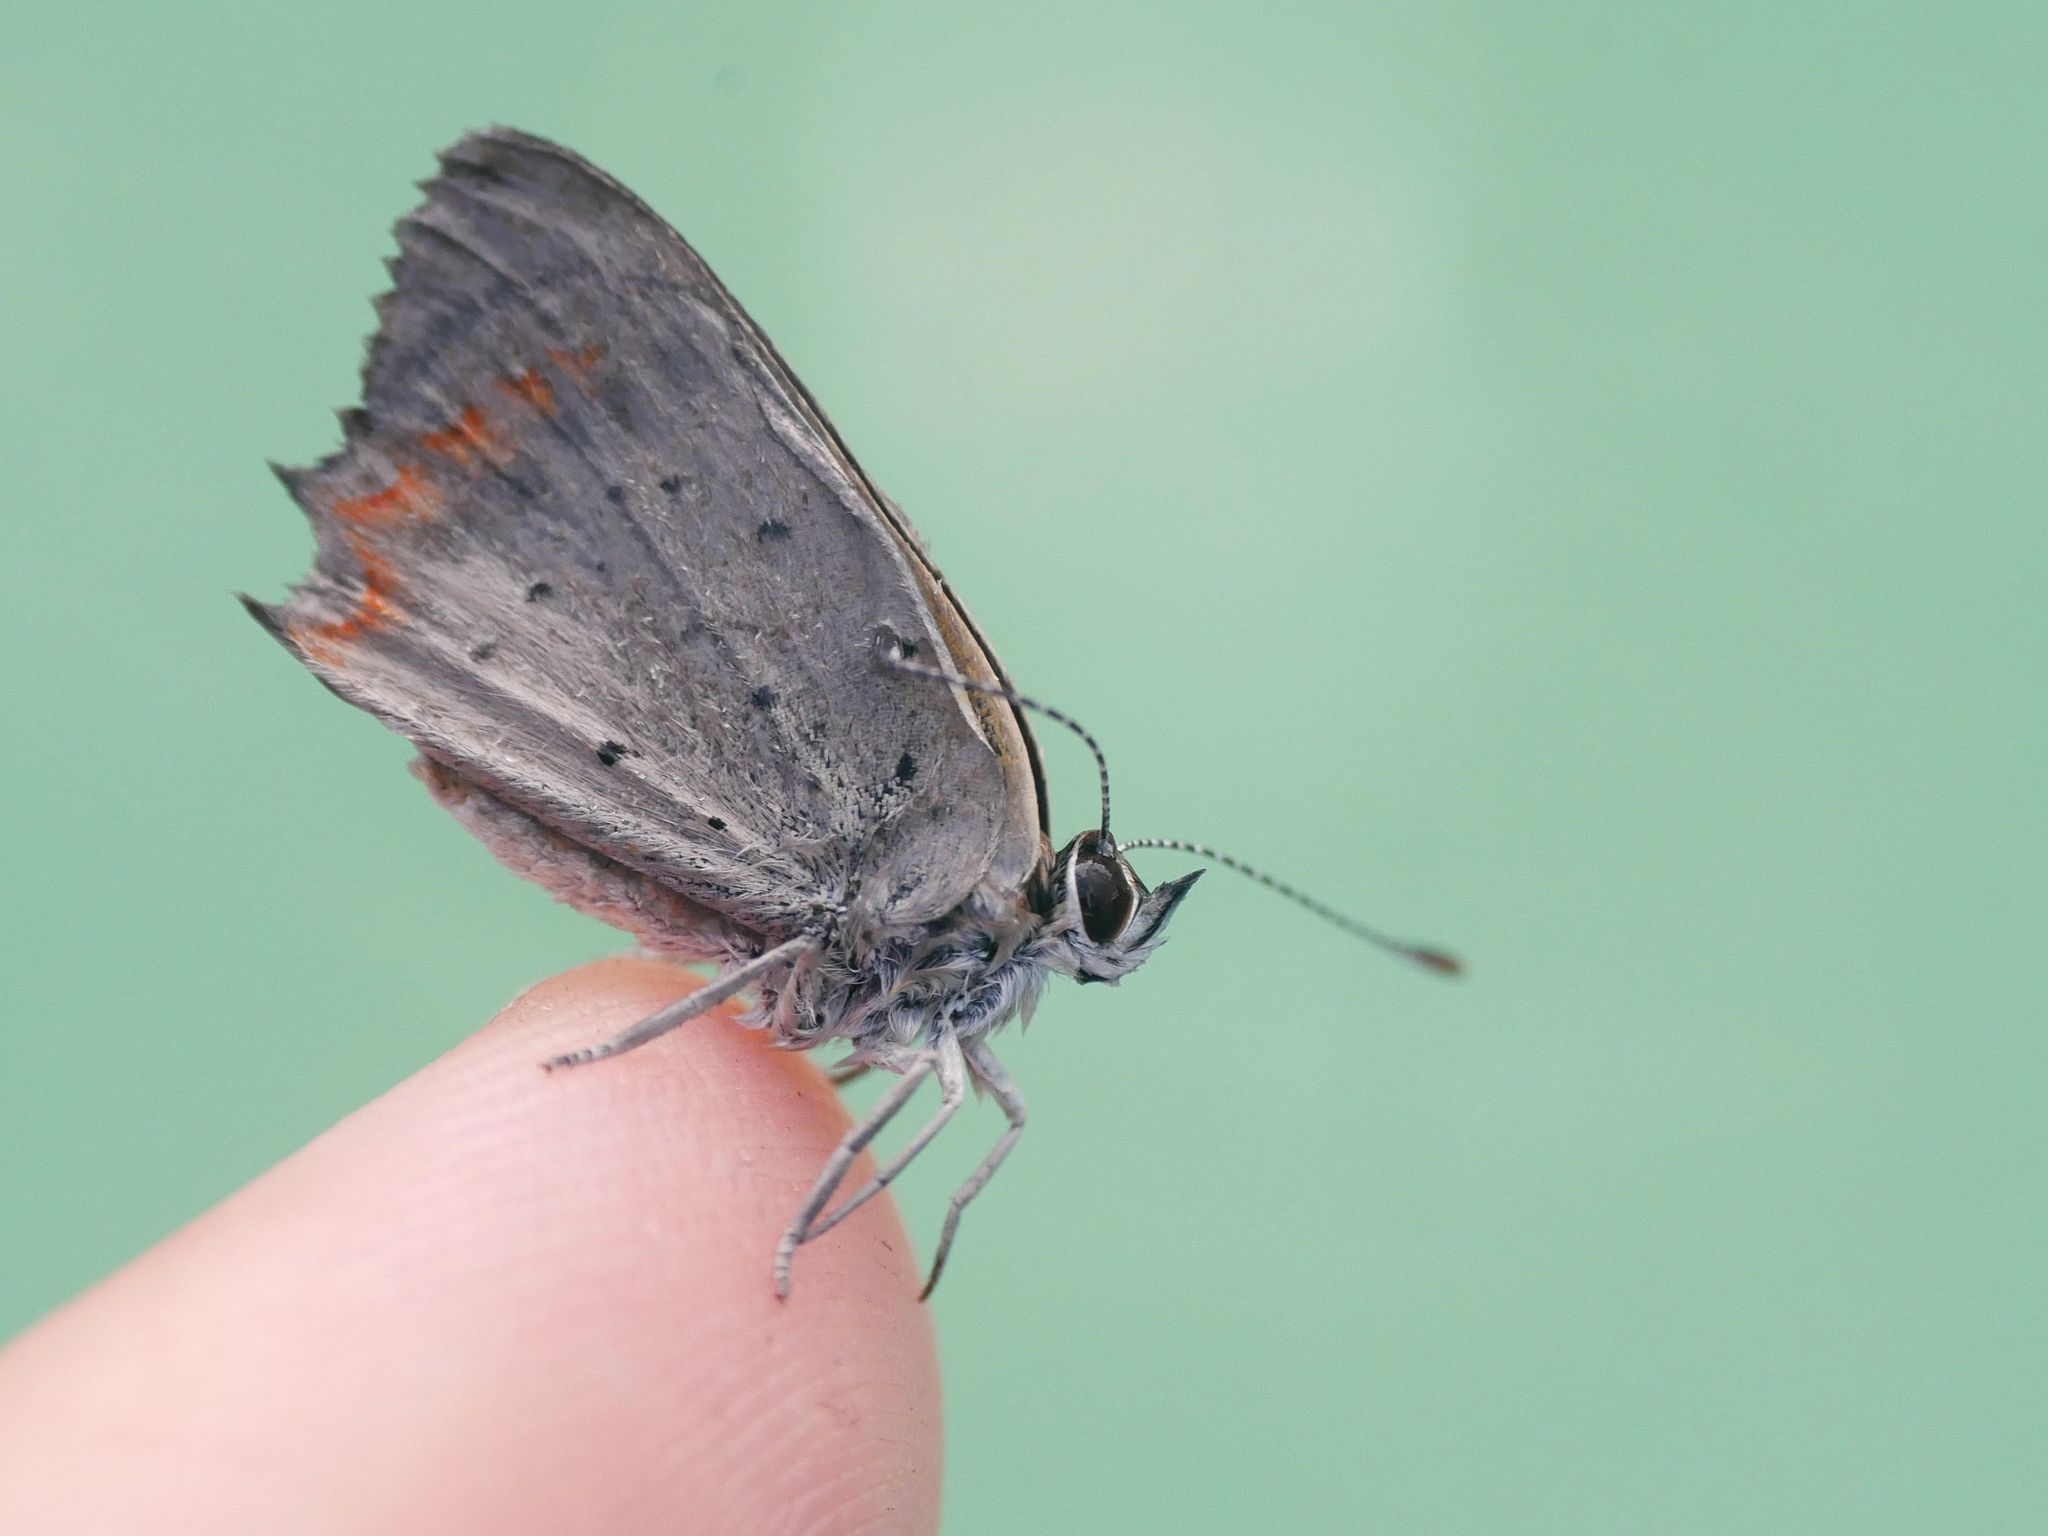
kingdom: Animalia
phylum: Arthropoda
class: Insecta
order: Lepidoptera
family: Lycaenidae
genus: Lycaena
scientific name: Lycaena phlaeas
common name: Small copper
